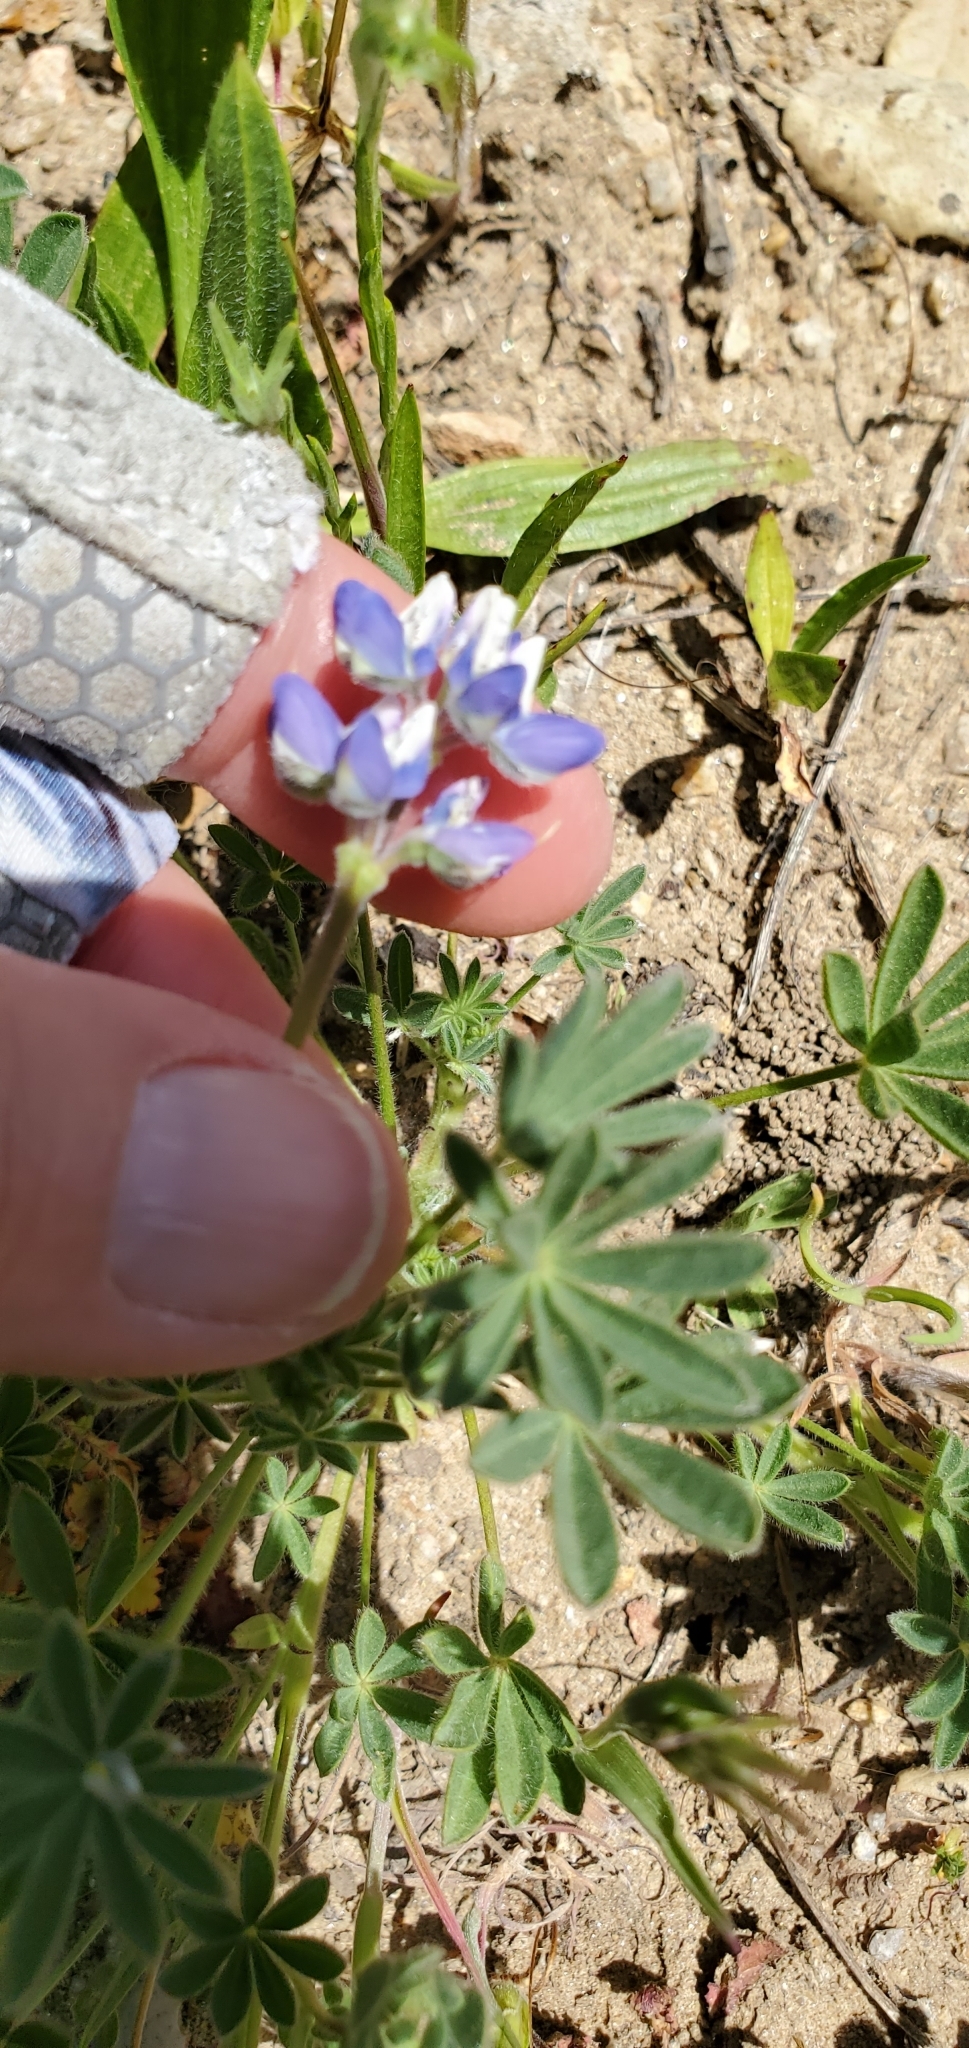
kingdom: Plantae
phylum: Tracheophyta
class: Magnoliopsida
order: Fabales
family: Fabaceae
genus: Lupinus
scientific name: Lupinus bicolor
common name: Miniature lupine
